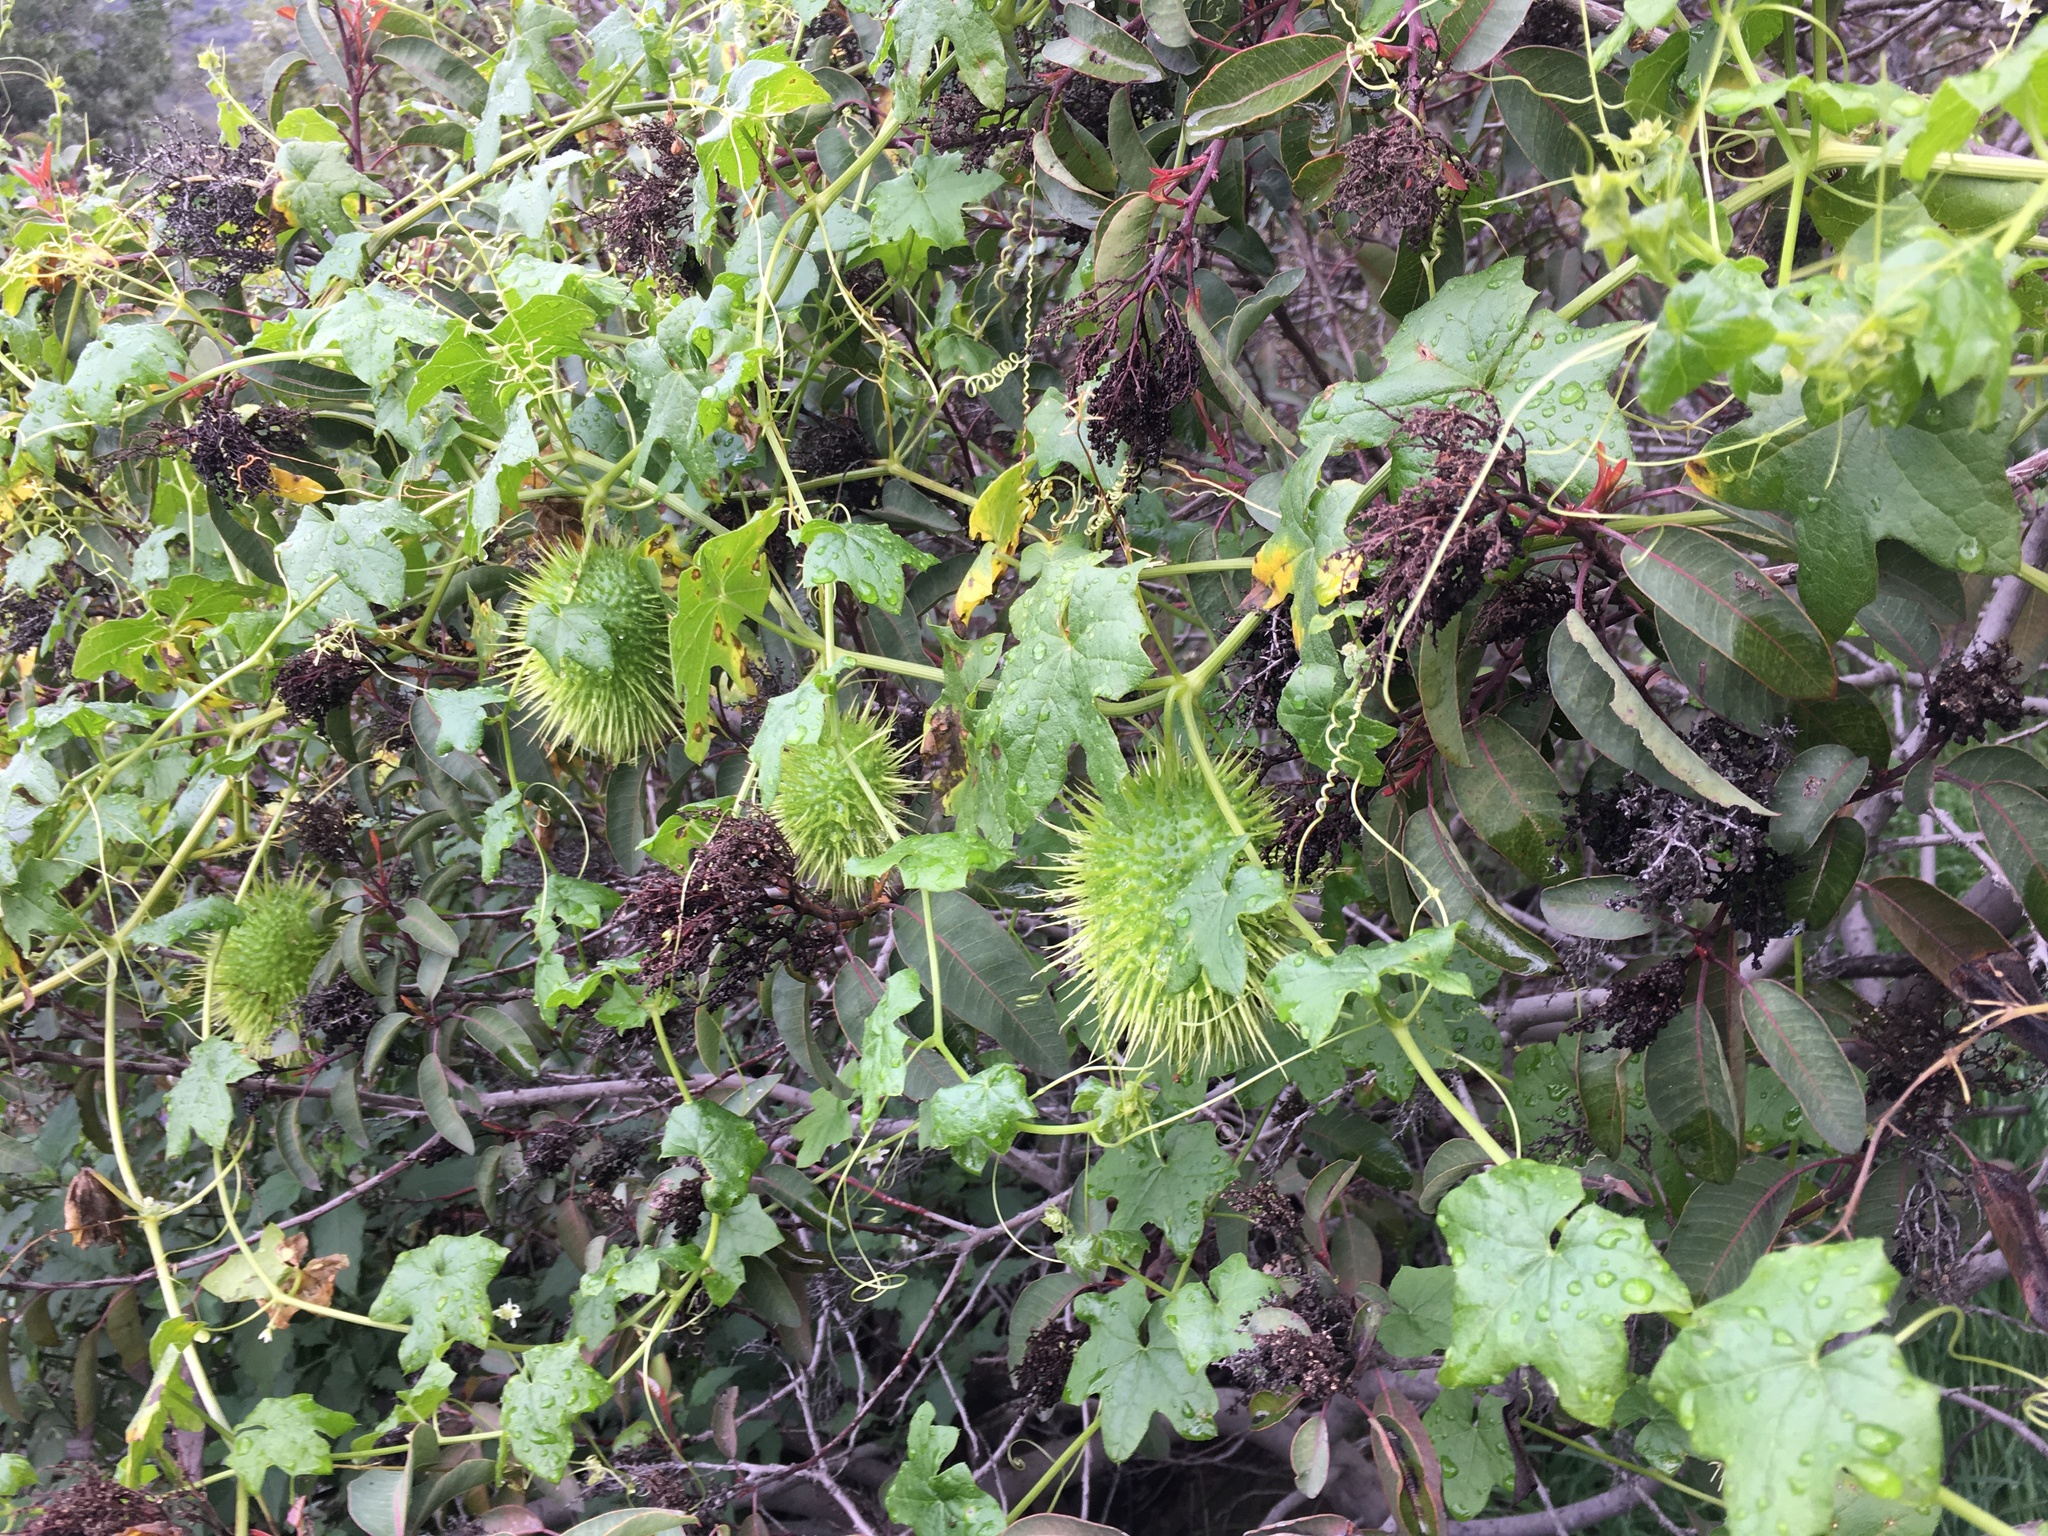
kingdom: Plantae
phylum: Tracheophyta
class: Magnoliopsida
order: Cucurbitales
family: Cucurbitaceae
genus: Marah
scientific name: Marah macrocarpa
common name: Cucamonga manroot
